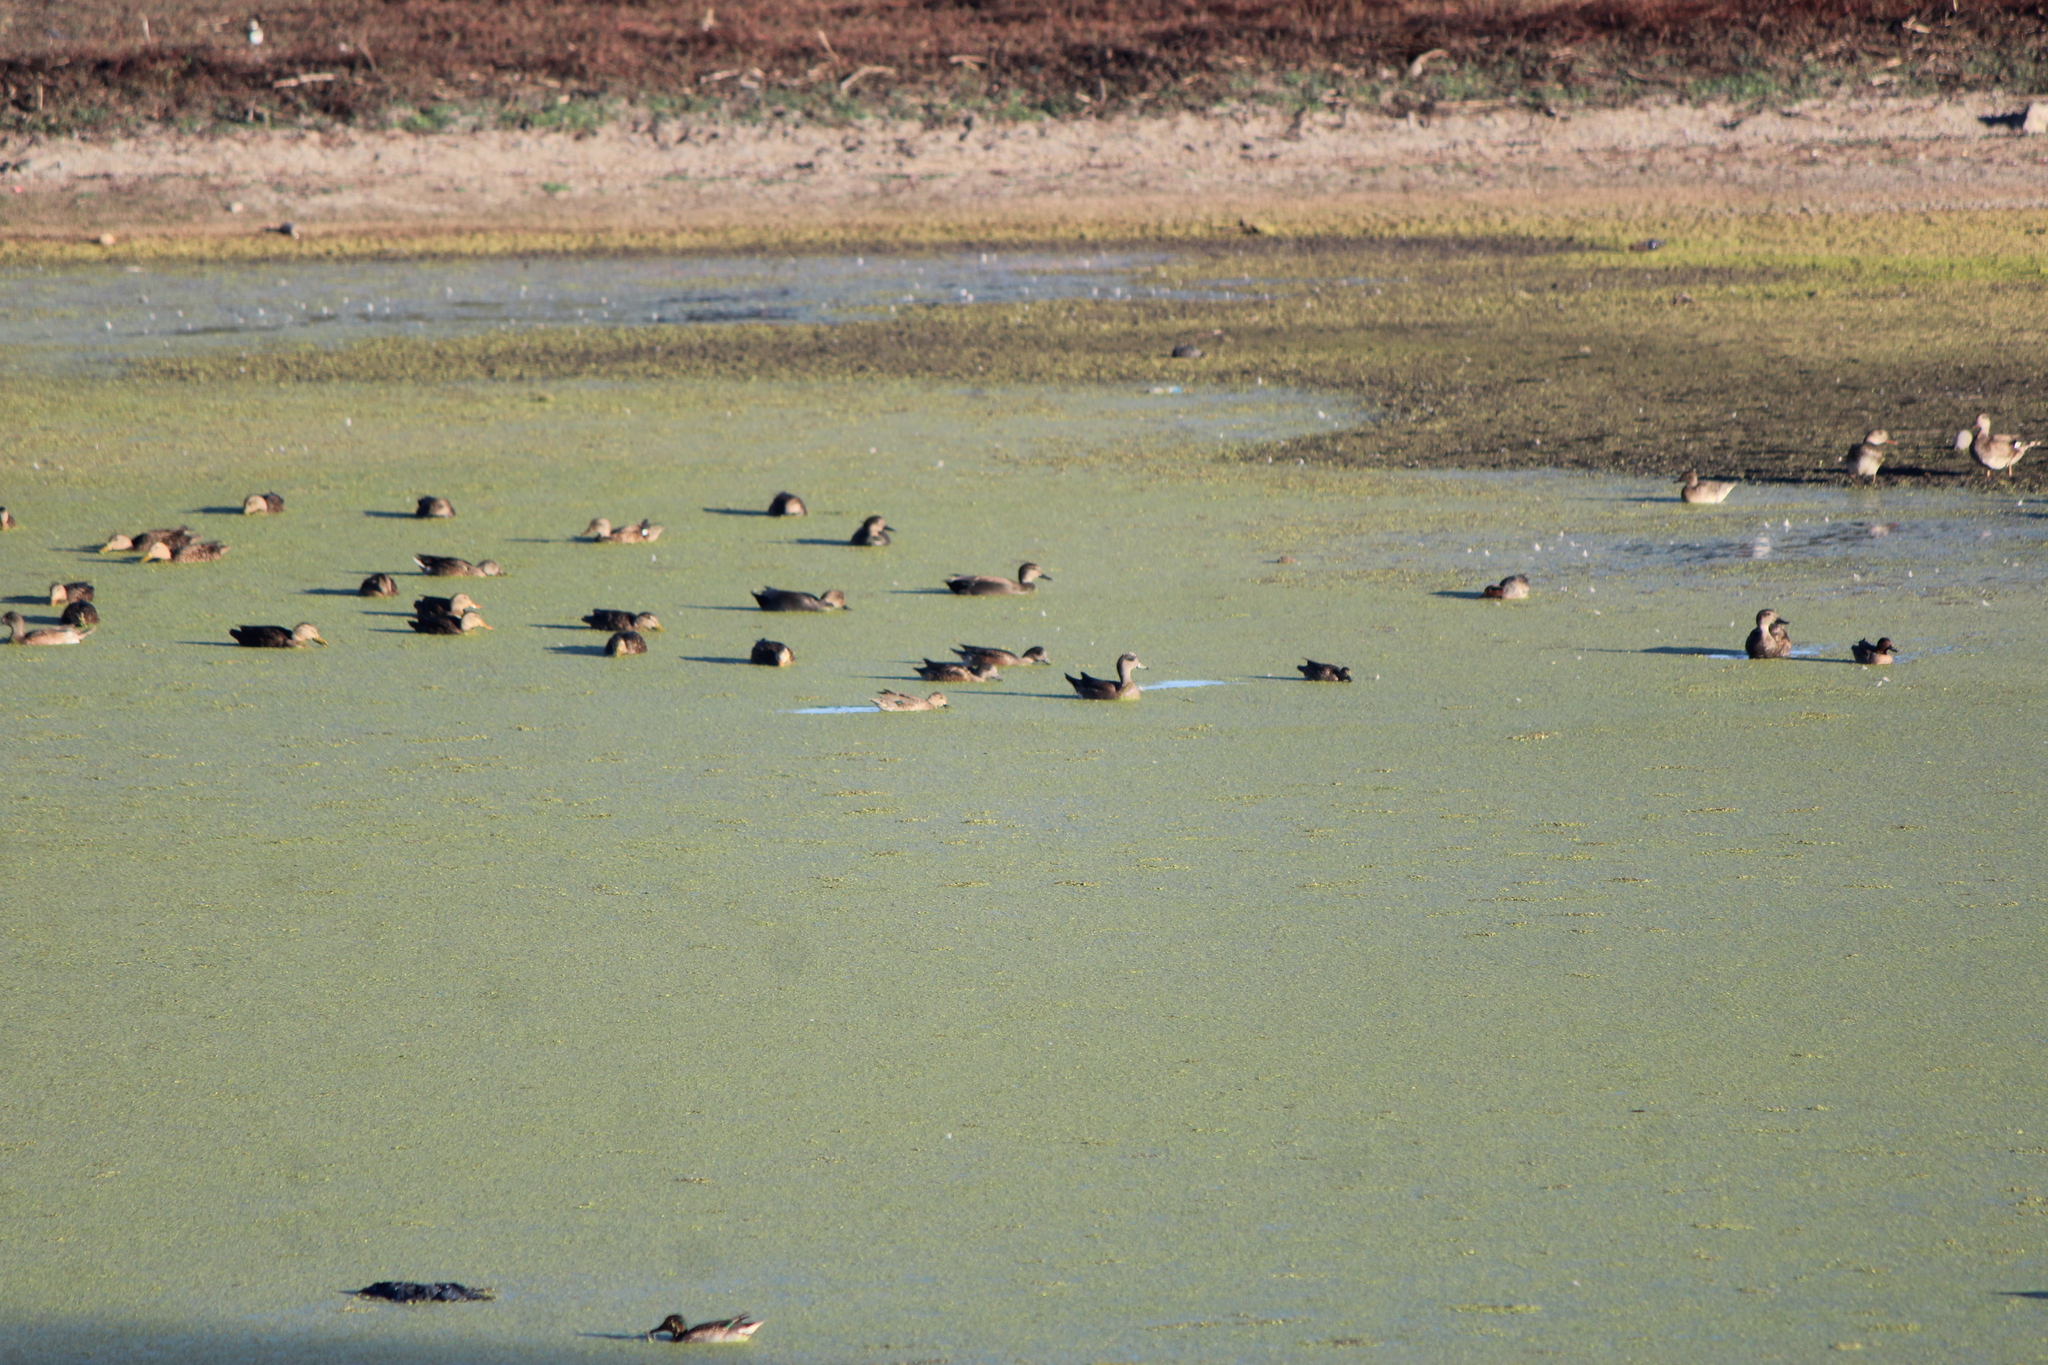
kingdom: Animalia
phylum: Chordata
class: Aves
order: Anseriformes
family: Anatidae
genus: Mareca
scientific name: Mareca americana
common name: American wigeon
